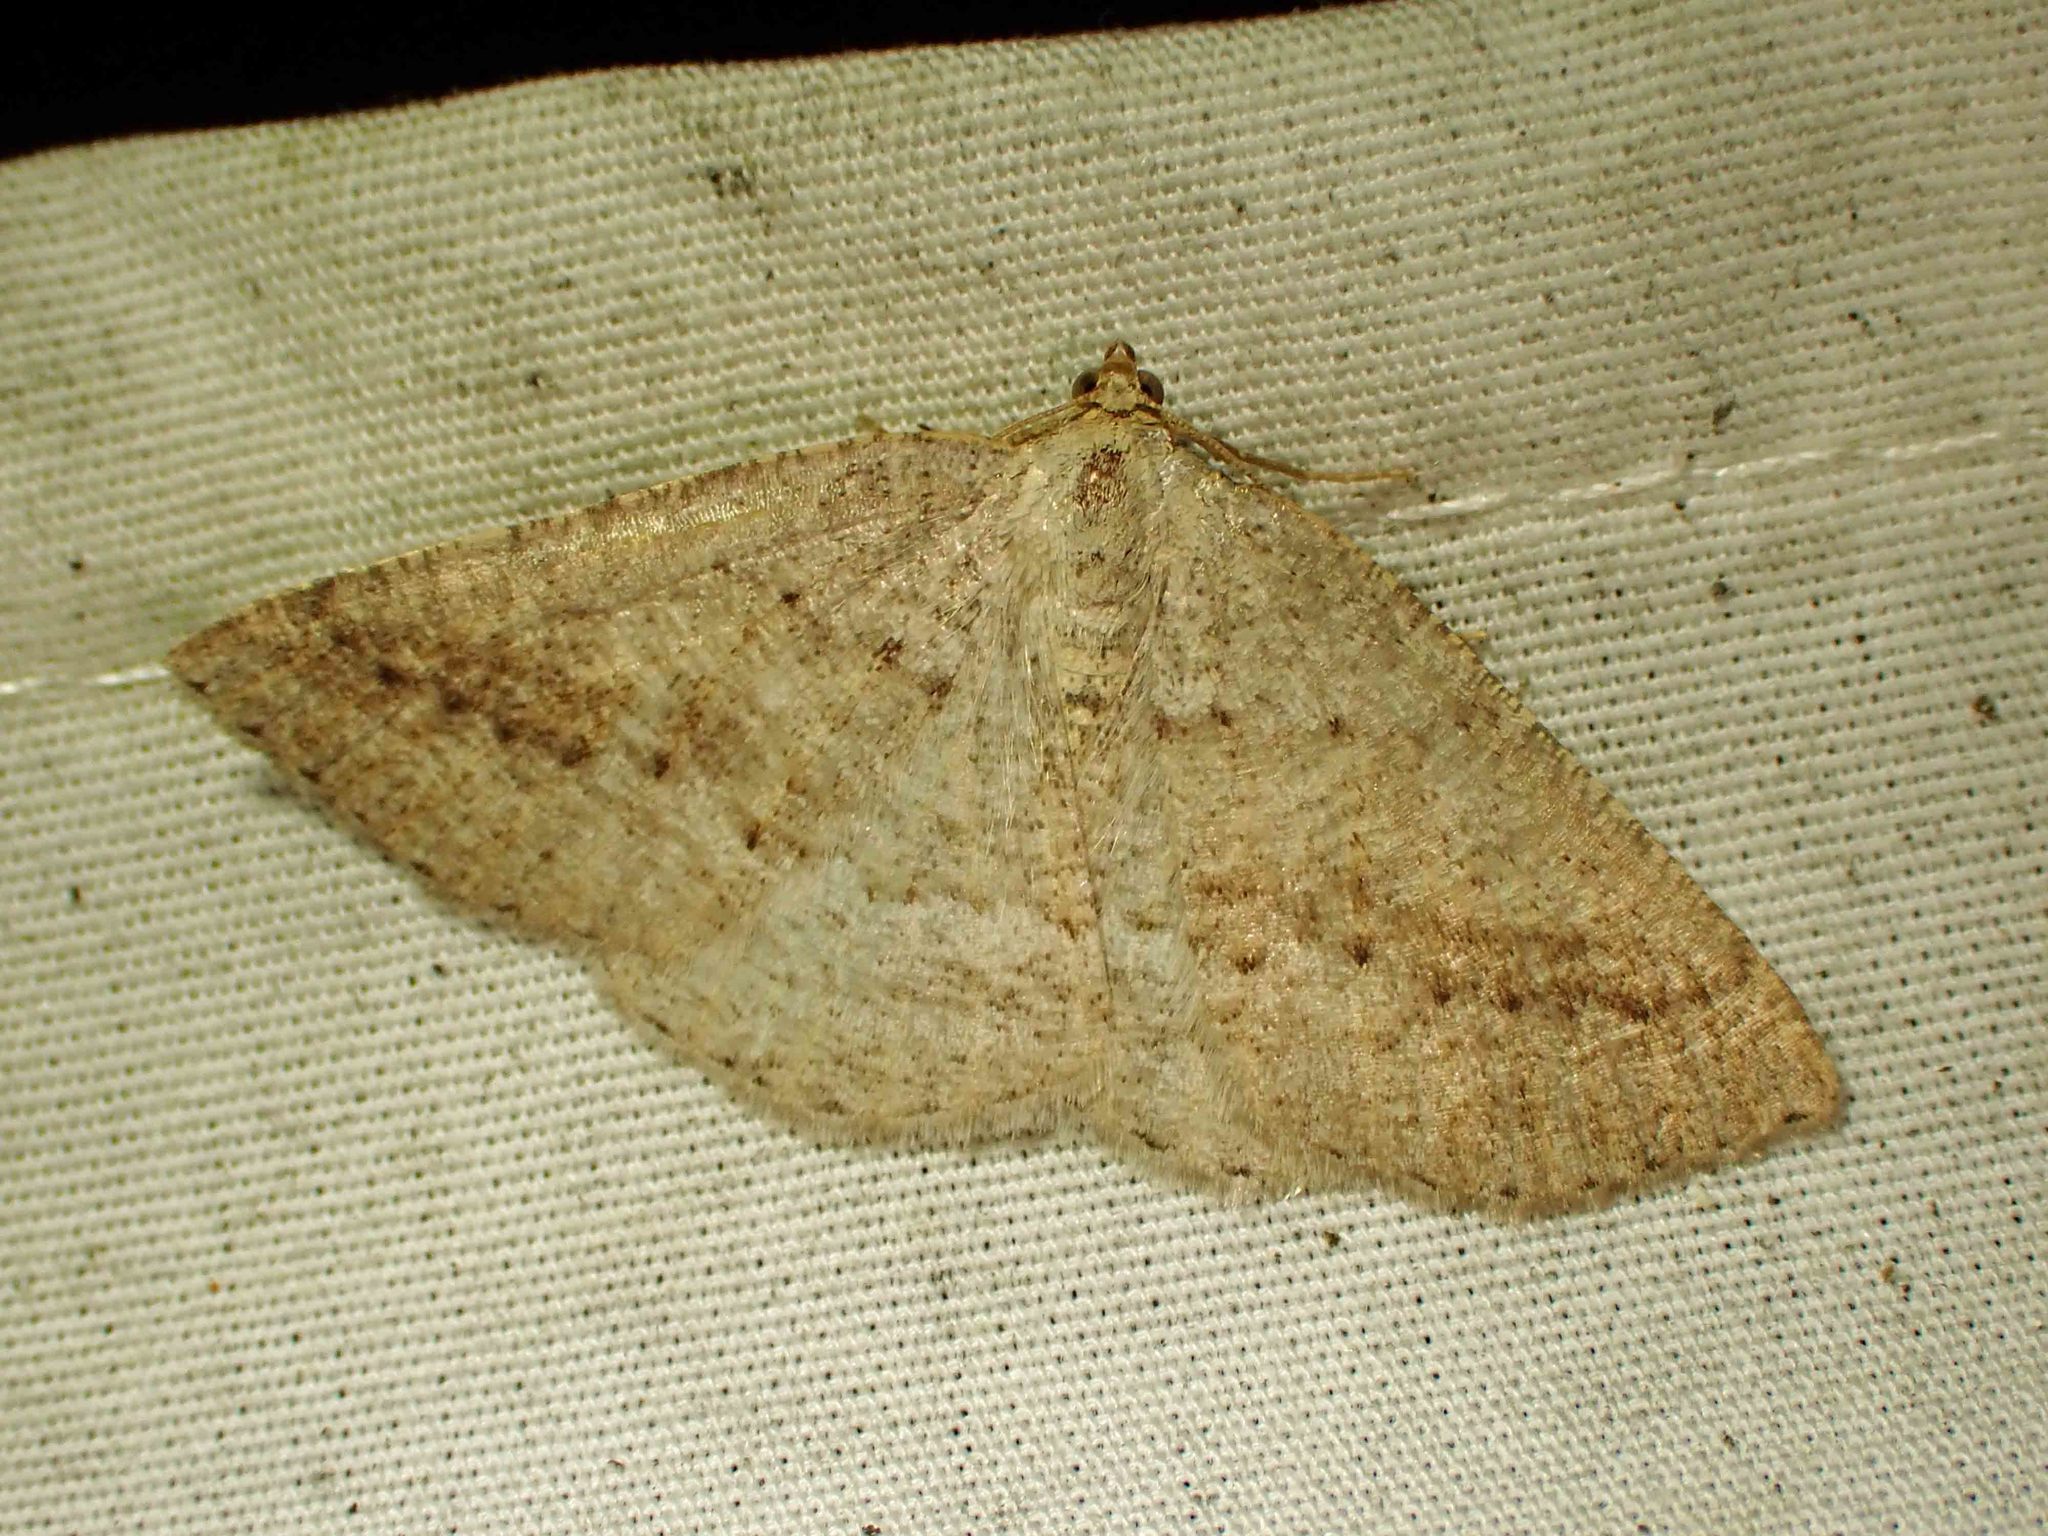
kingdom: Animalia
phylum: Arthropoda
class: Insecta
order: Lepidoptera
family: Geometridae
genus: Tacparia
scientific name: Tacparia detersata
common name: Pale alder moth
